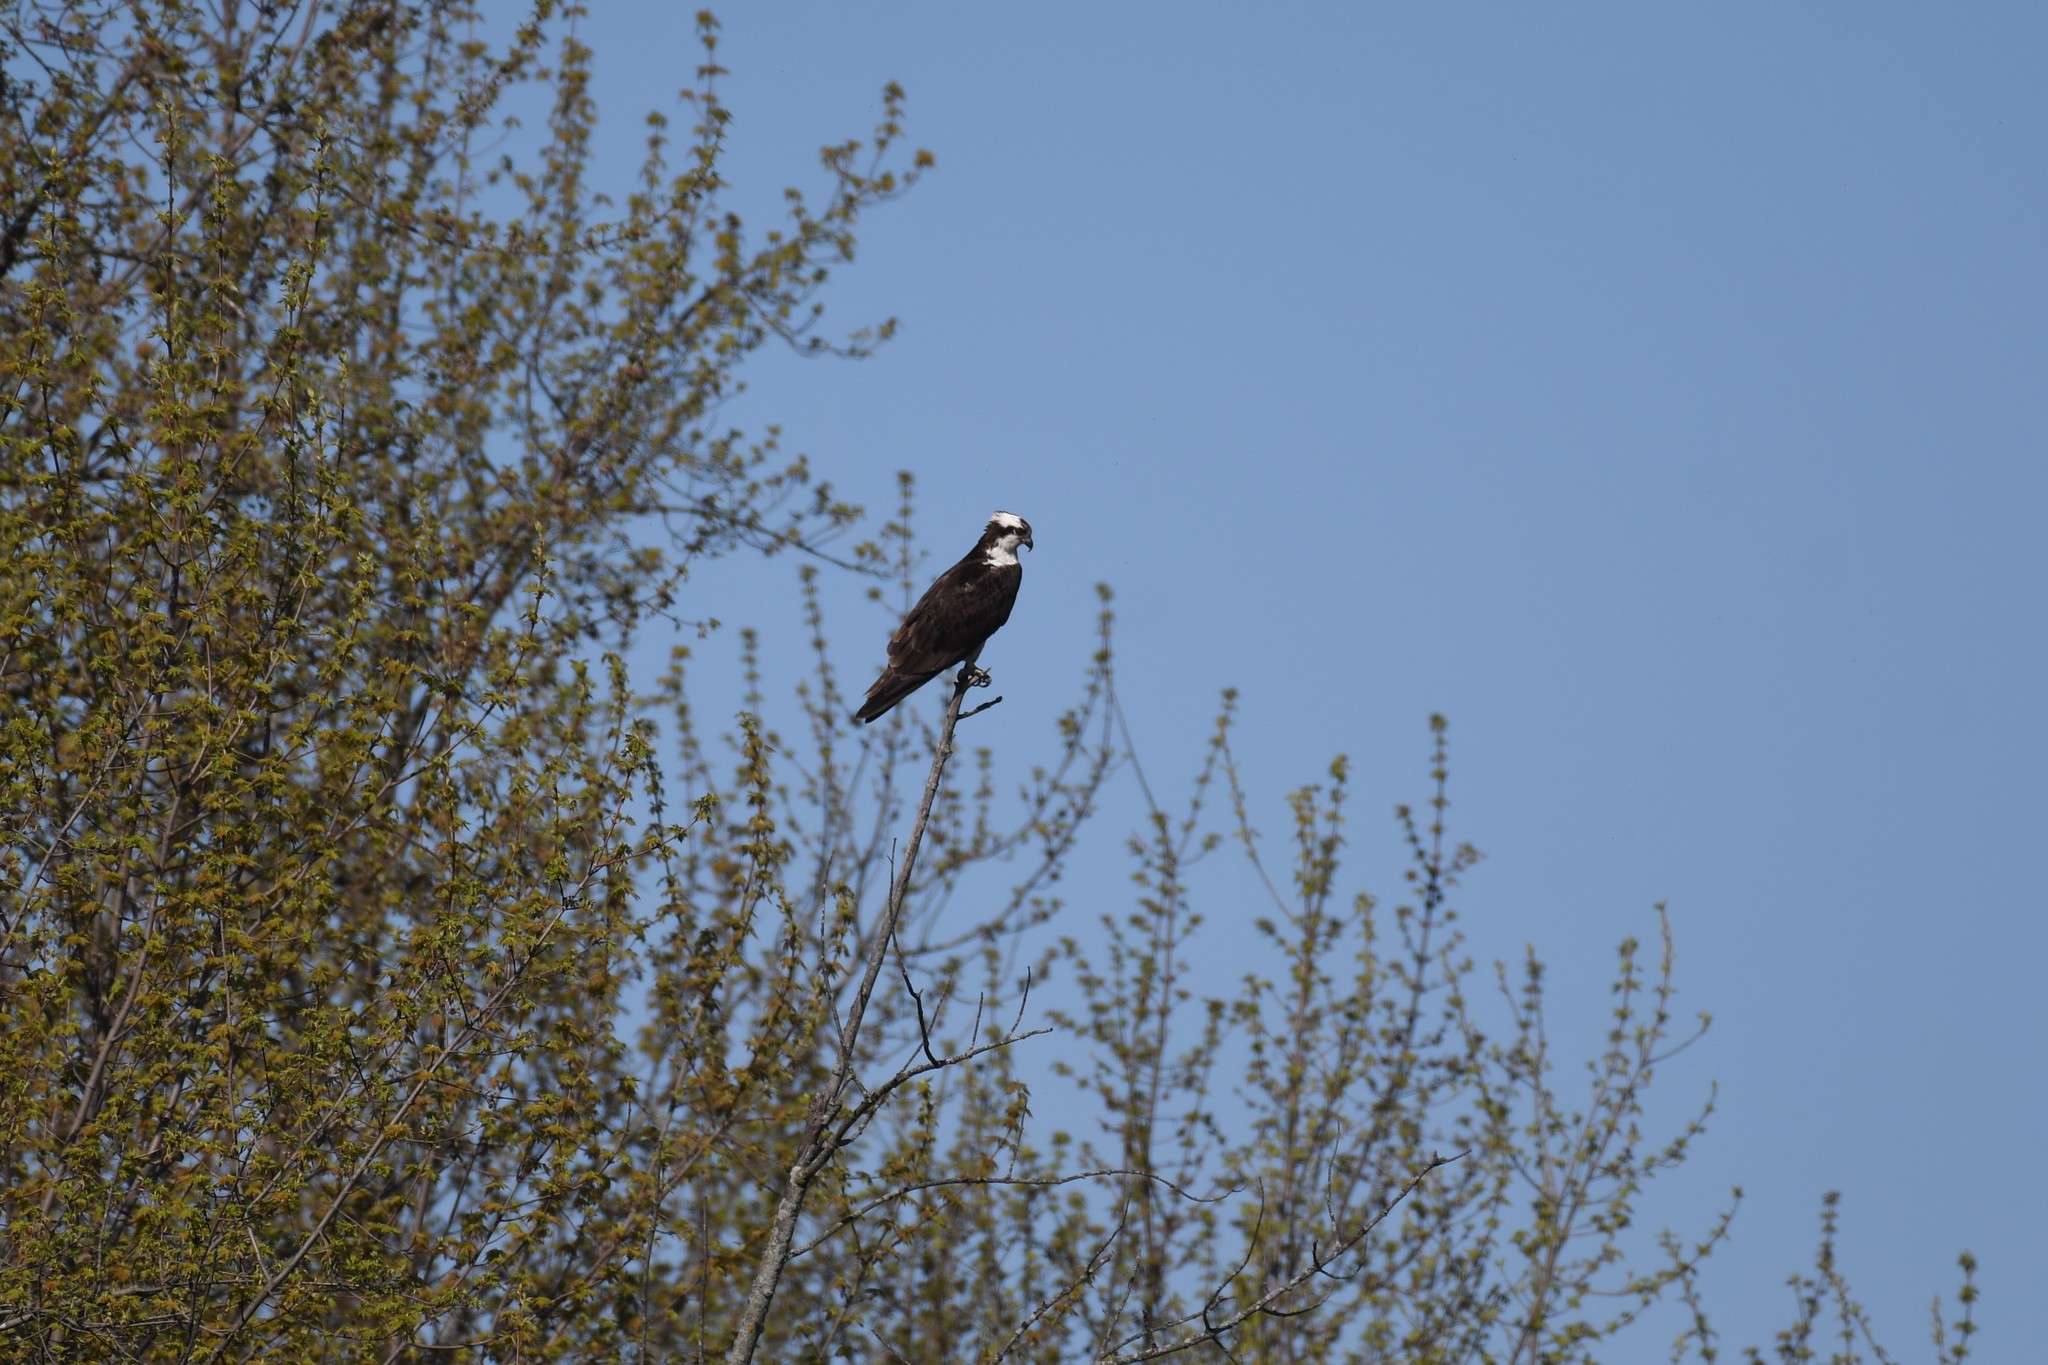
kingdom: Animalia
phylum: Chordata
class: Aves
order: Accipitriformes
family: Pandionidae
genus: Pandion
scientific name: Pandion haliaetus
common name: Osprey
